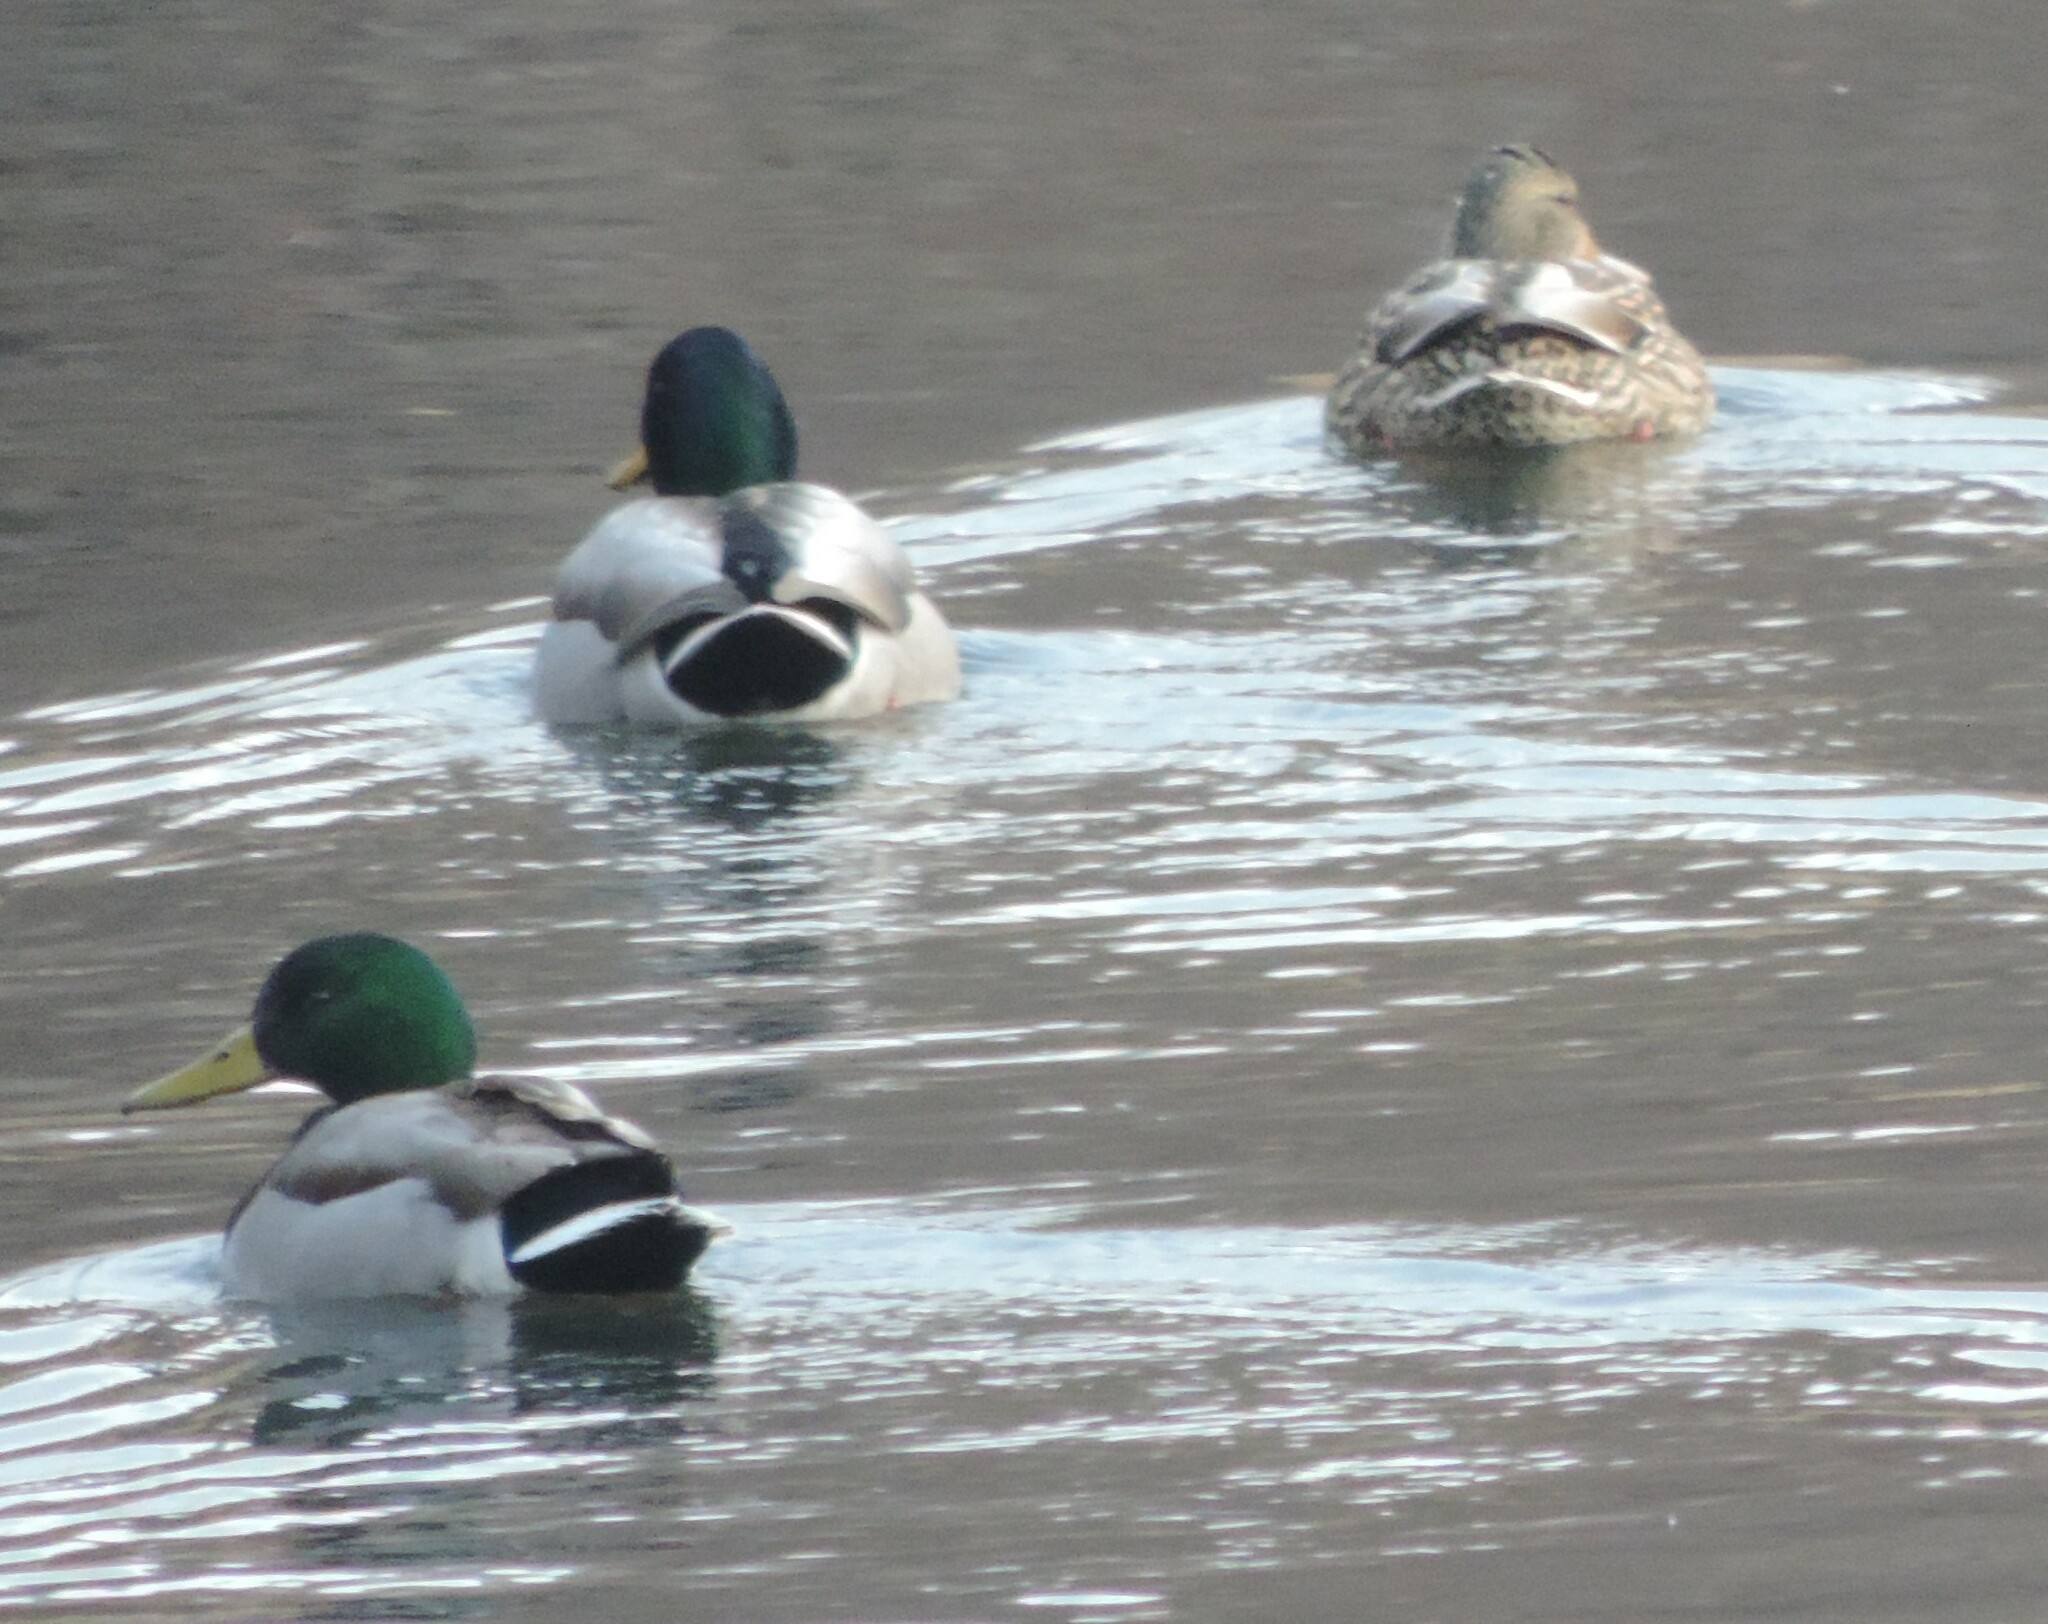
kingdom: Animalia
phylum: Chordata
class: Aves
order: Anseriformes
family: Anatidae
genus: Anas
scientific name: Anas platyrhynchos
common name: Mallard
